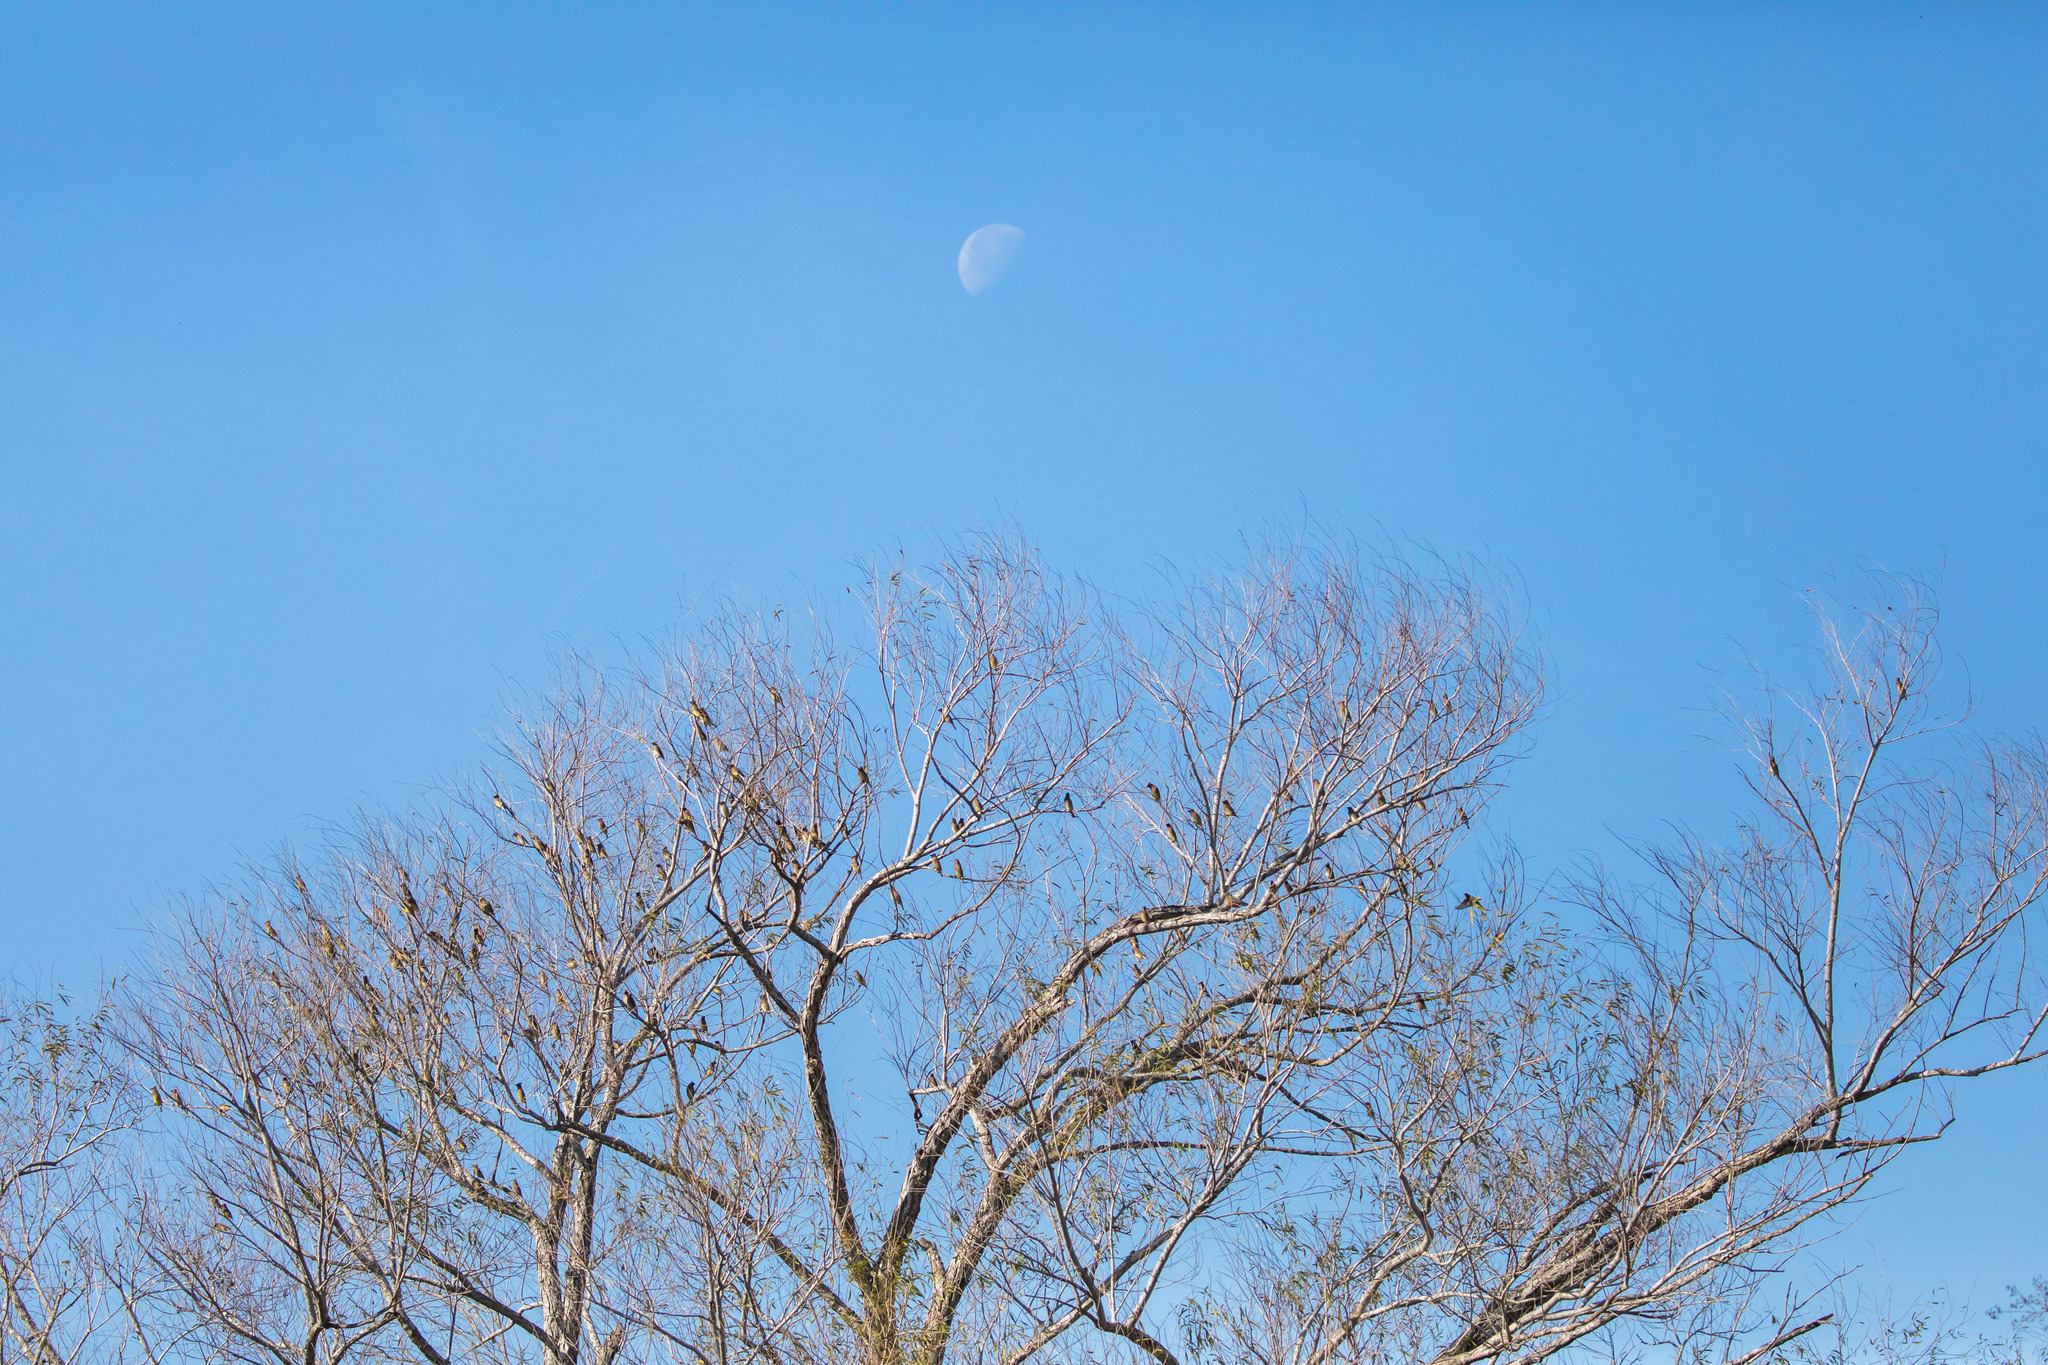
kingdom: Animalia
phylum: Chordata
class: Aves
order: Passeriformes
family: Bombycillidae
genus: Bombycilla
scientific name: Bombycilla cedrorum
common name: Cedar waxwing
